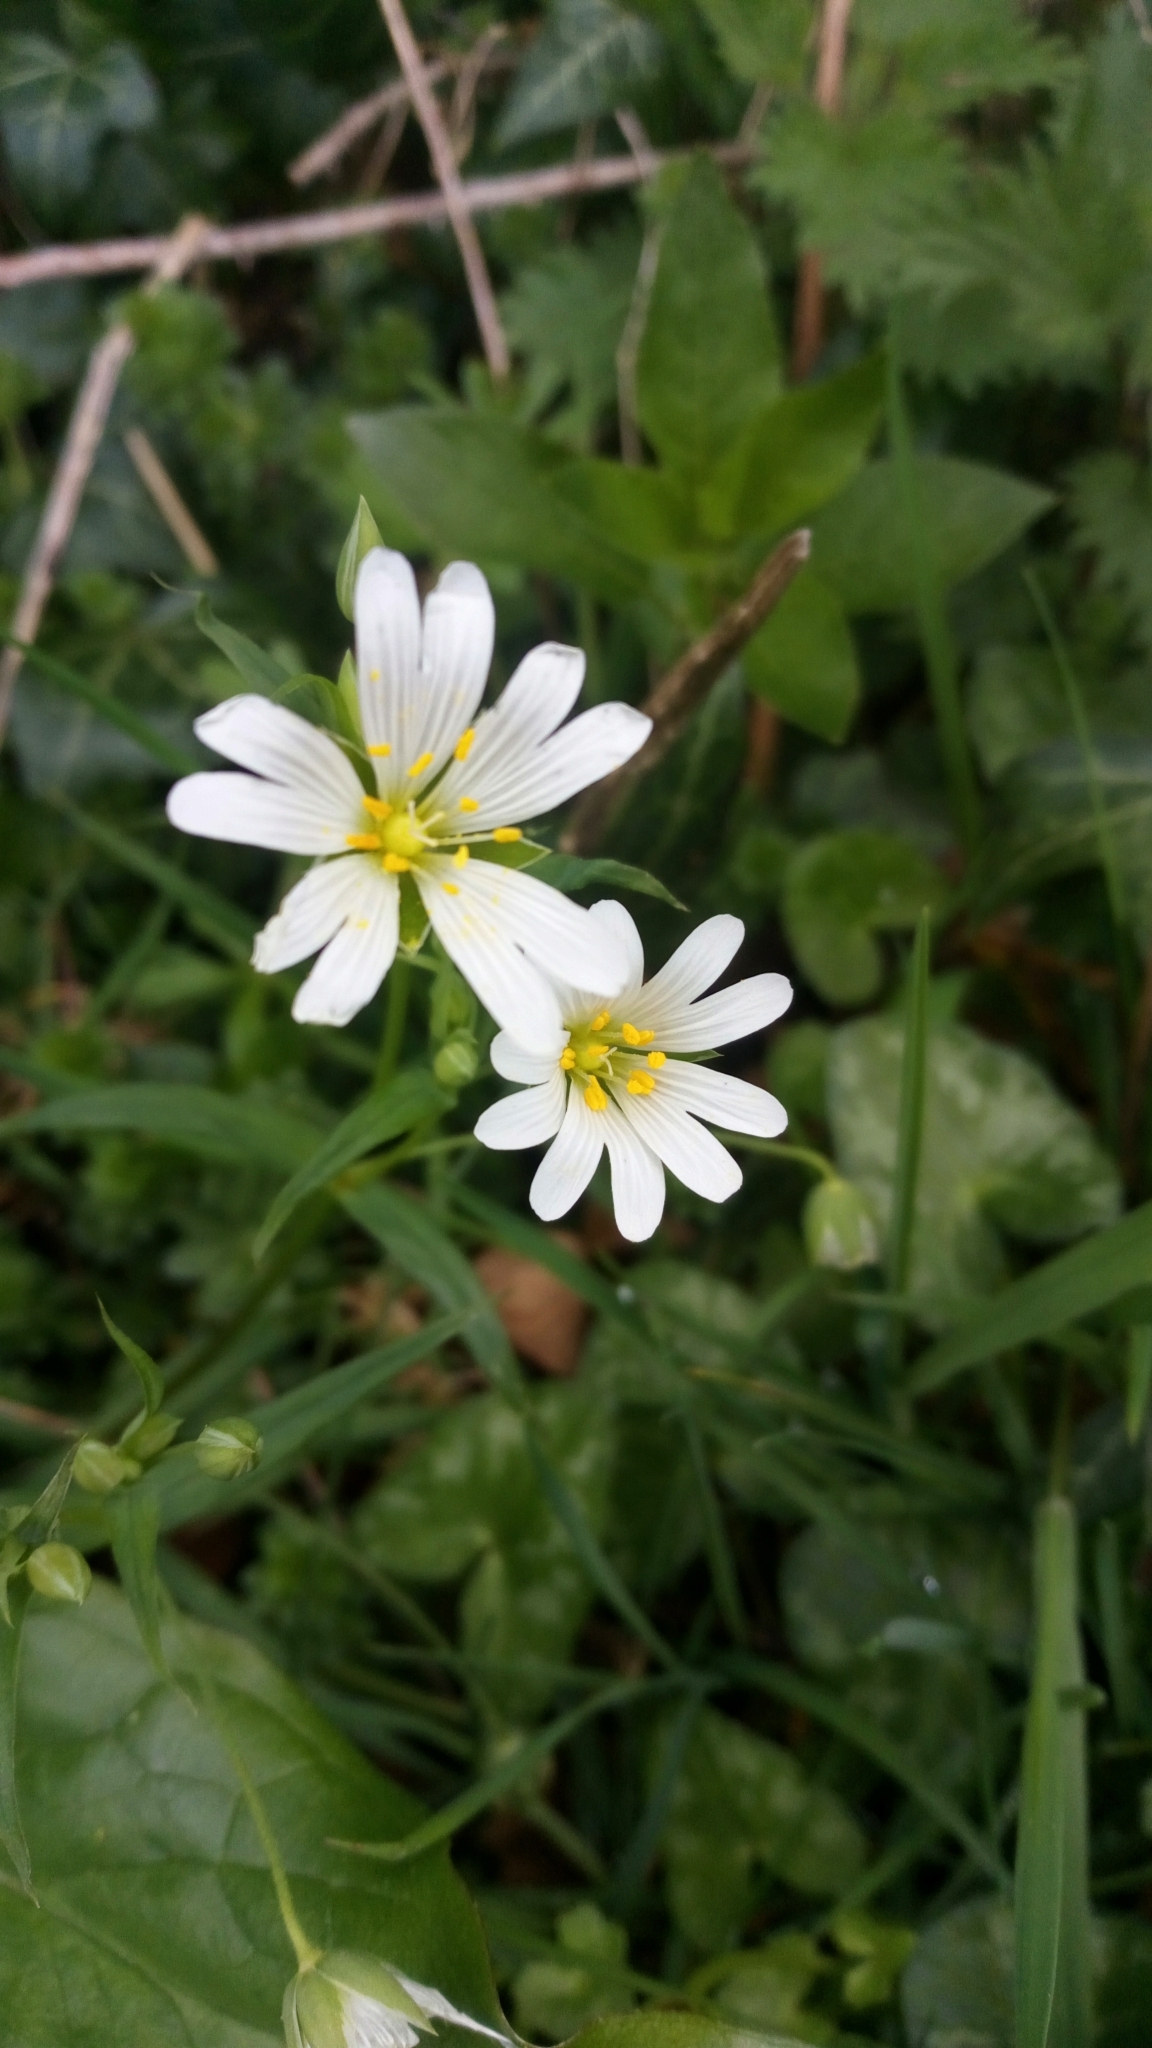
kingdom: Plantae
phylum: Tracheophyta
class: Magnoliopsida
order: Caryophyllales
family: Caryophyllaceae
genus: Rabelera
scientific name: Rabelera holostea
